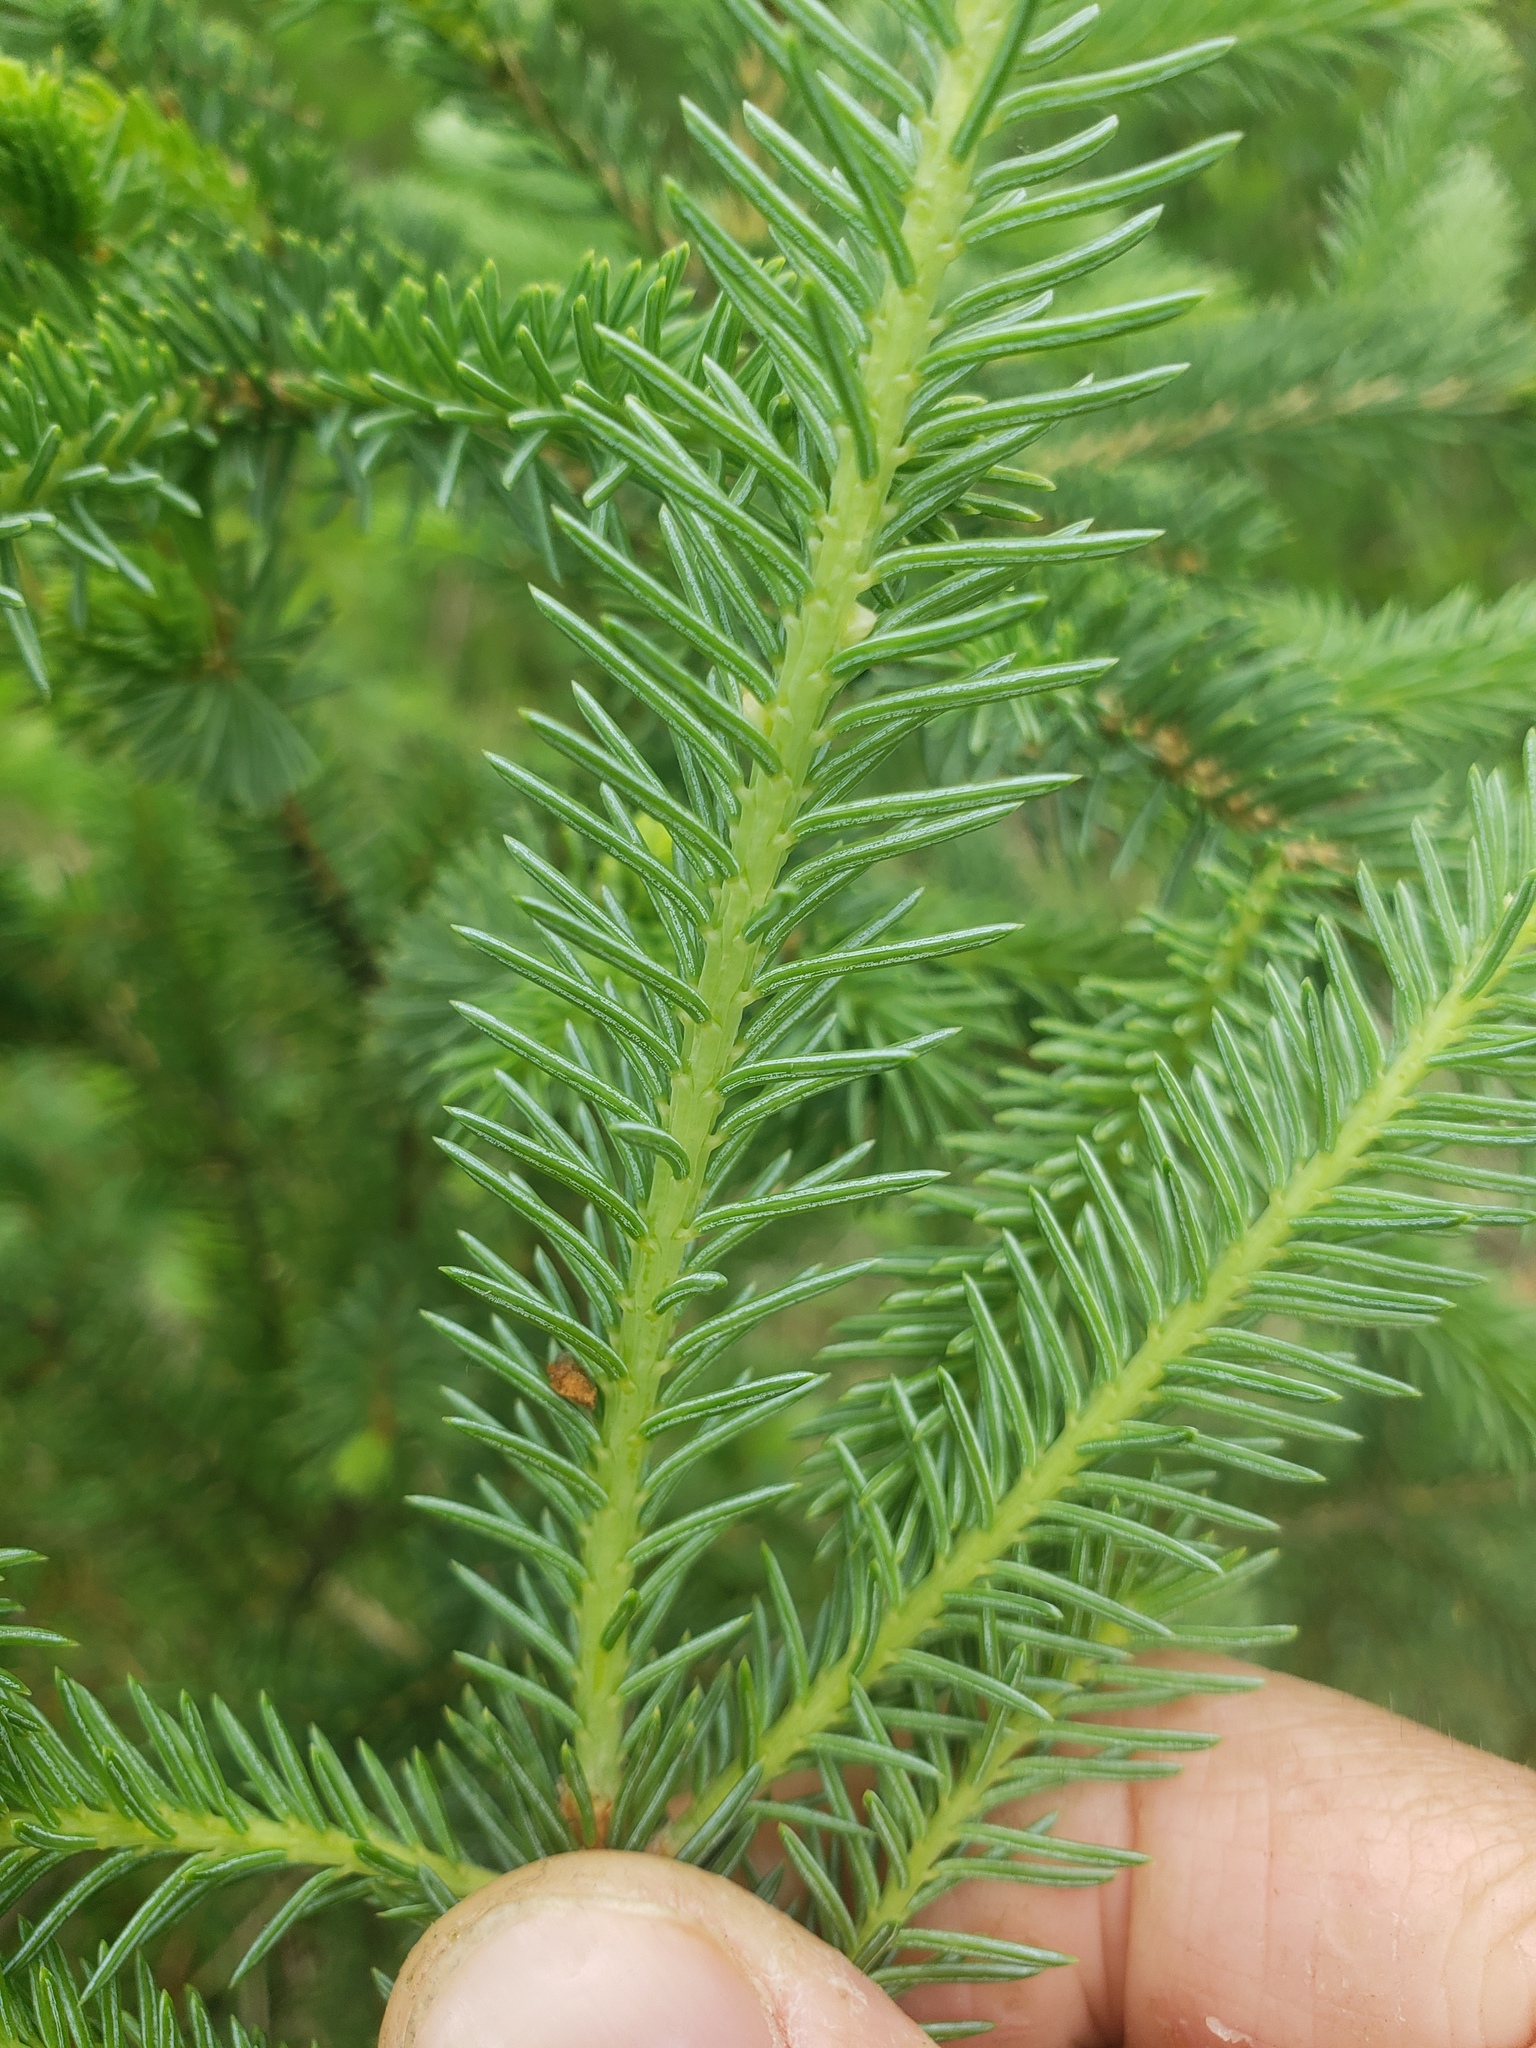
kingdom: Plantae
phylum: Tracheophyta
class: Pinopsida
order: Pinales
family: Pinaceae
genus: Picea
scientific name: Picea glauca
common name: White spruce
